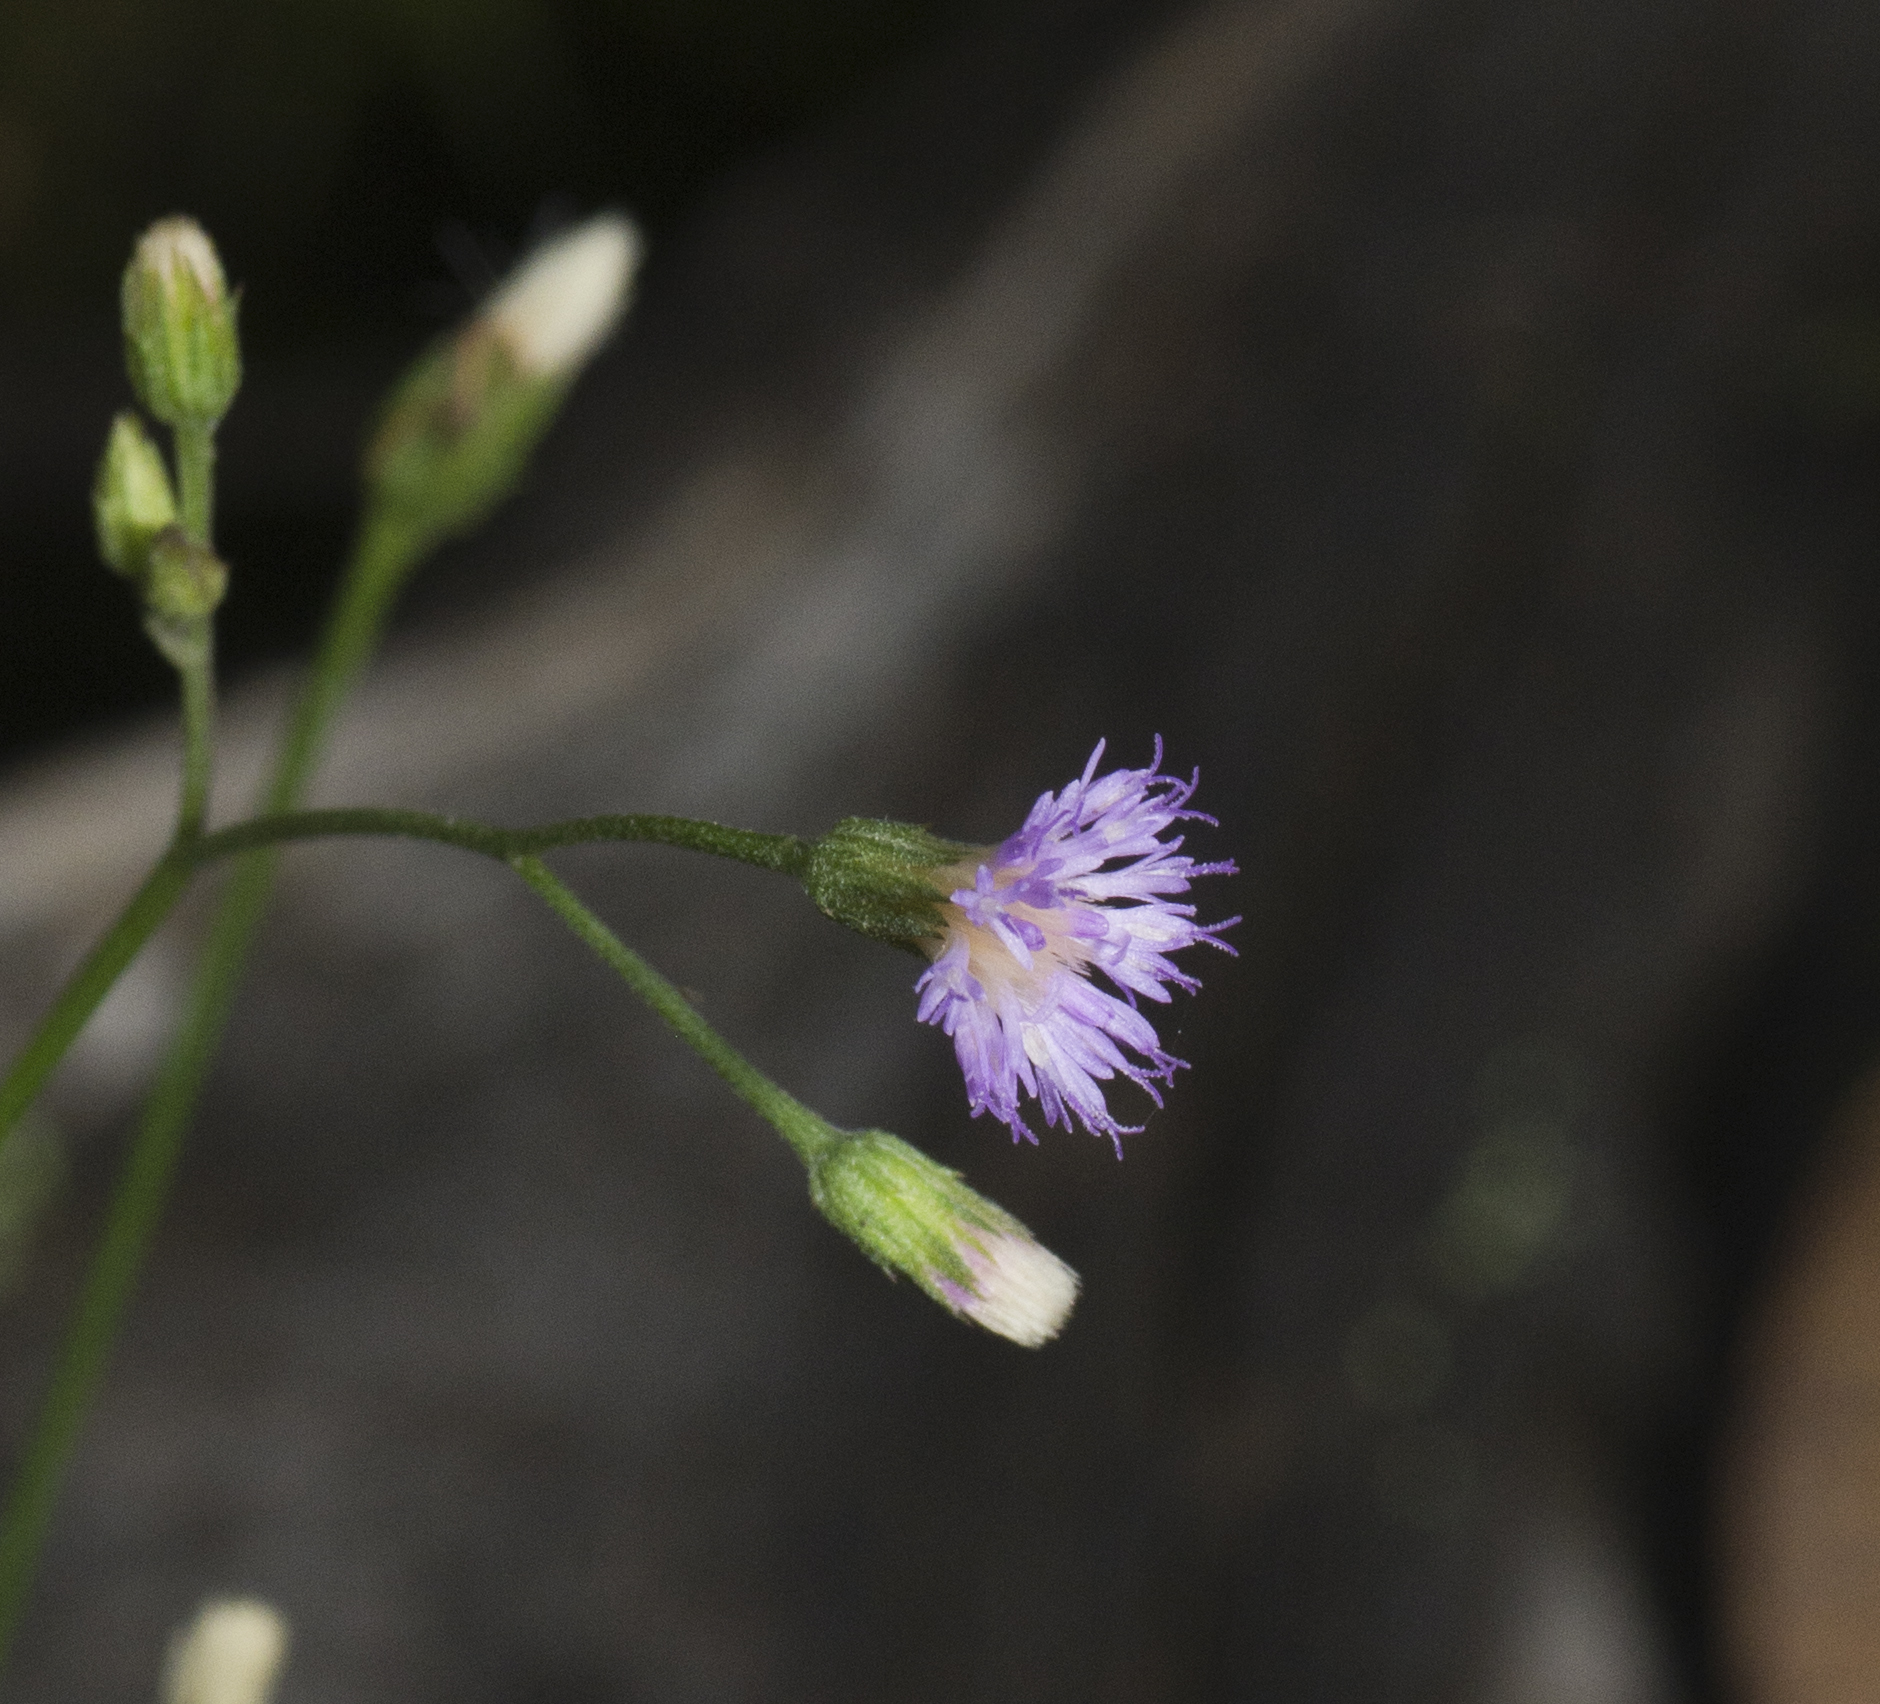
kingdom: Plantae
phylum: Tracheophyta
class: Magnoliopsida
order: Asterales
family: Asteraceae
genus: Cyanthillium
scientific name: Cyanthillium cinereum
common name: Little ironweed
